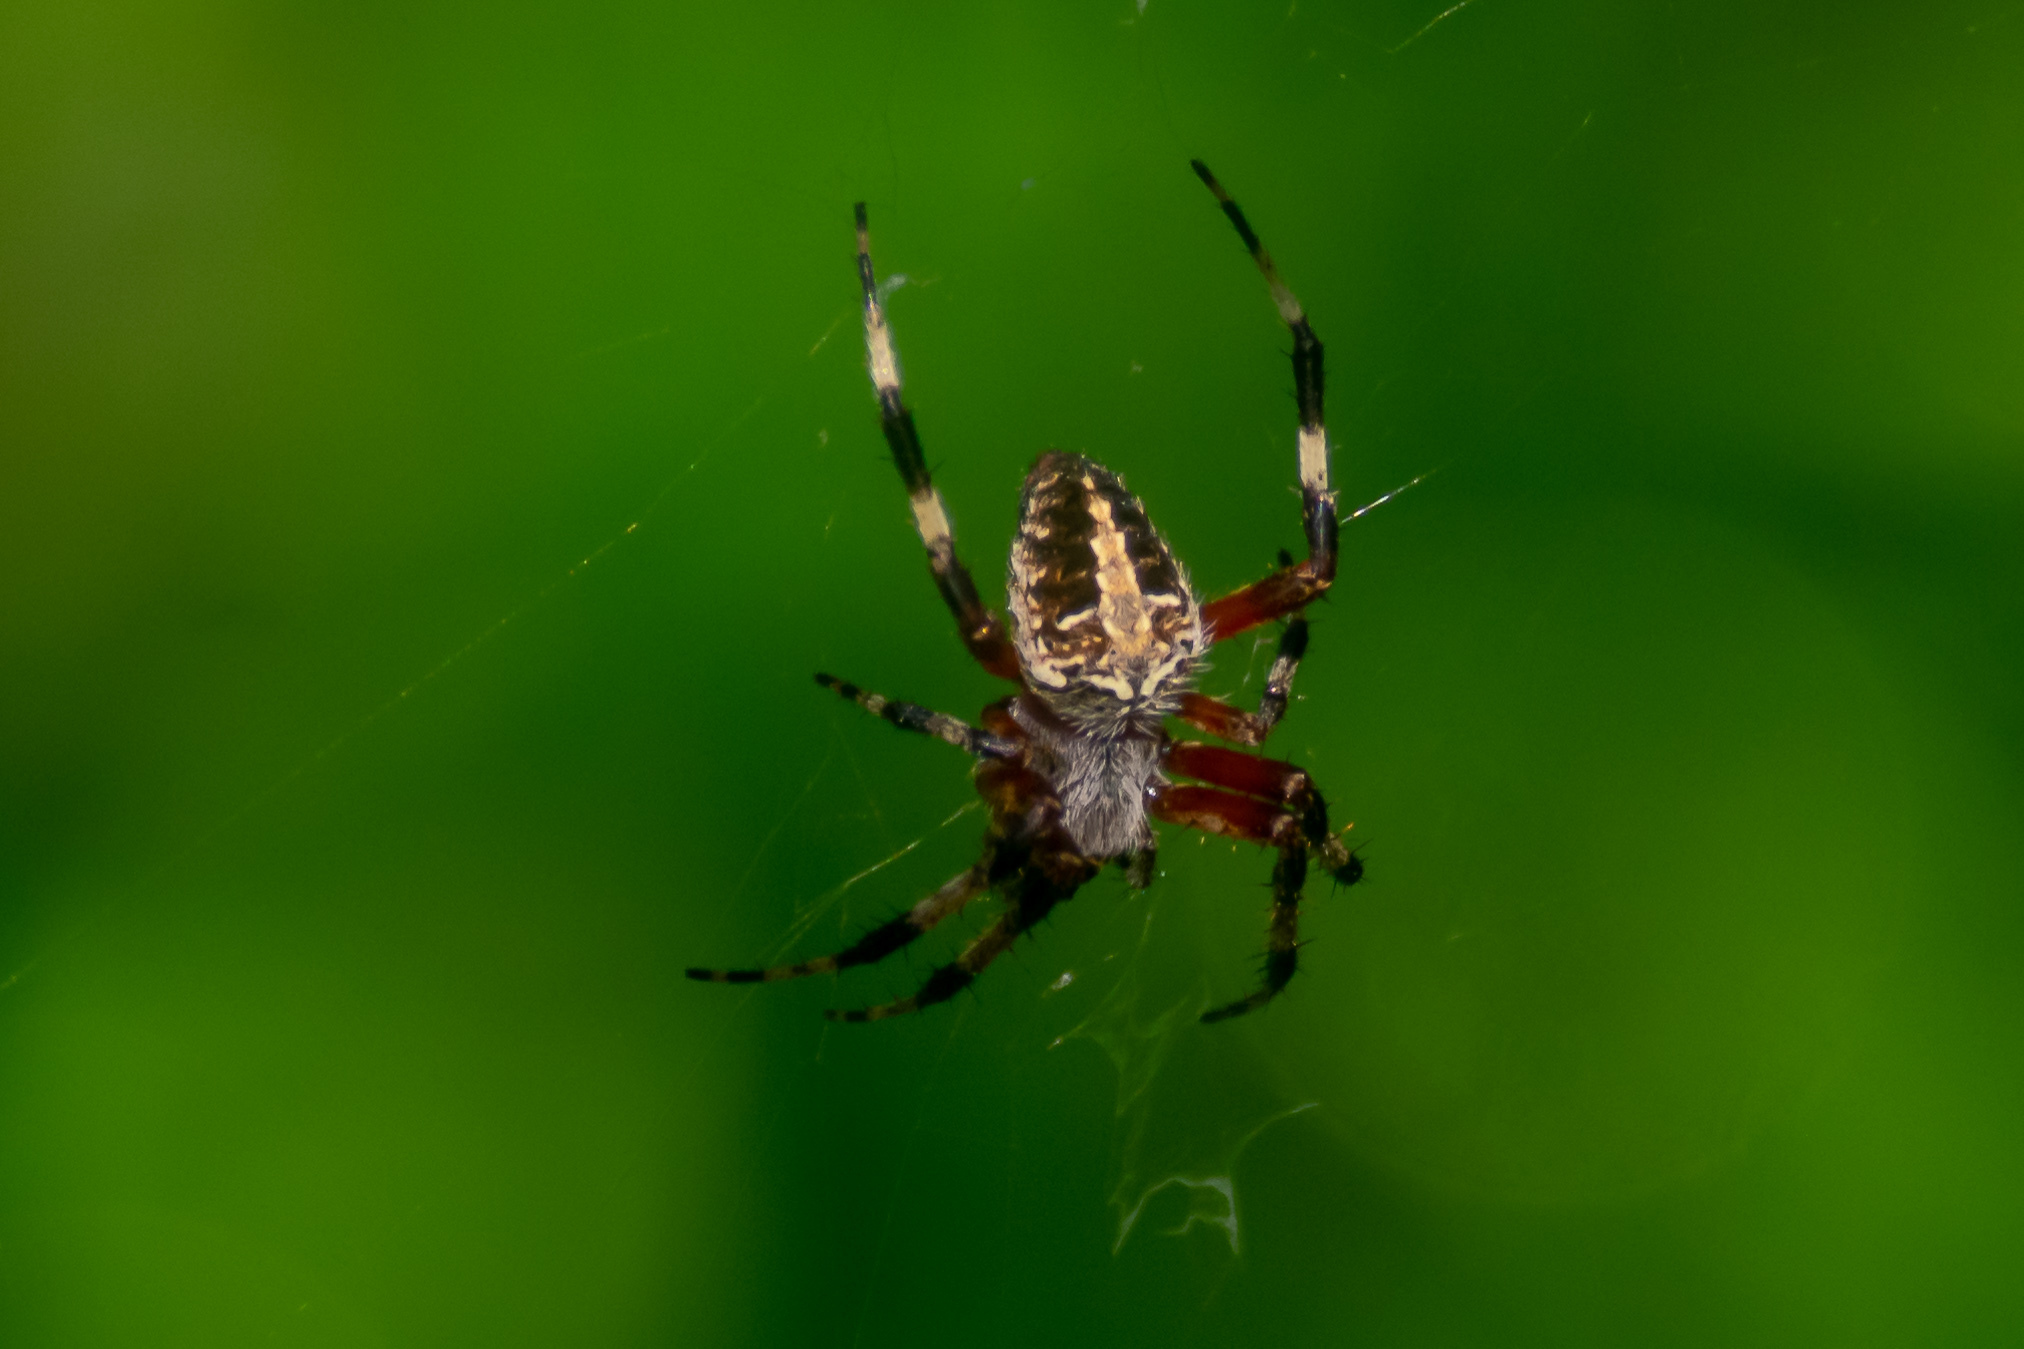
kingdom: Animalia
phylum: Arthropoda
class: Arachnida
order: Araneae
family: Araneidae
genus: Neoscona
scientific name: Neoscona domiciliorum
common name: Red-femured spotted orbweaver
